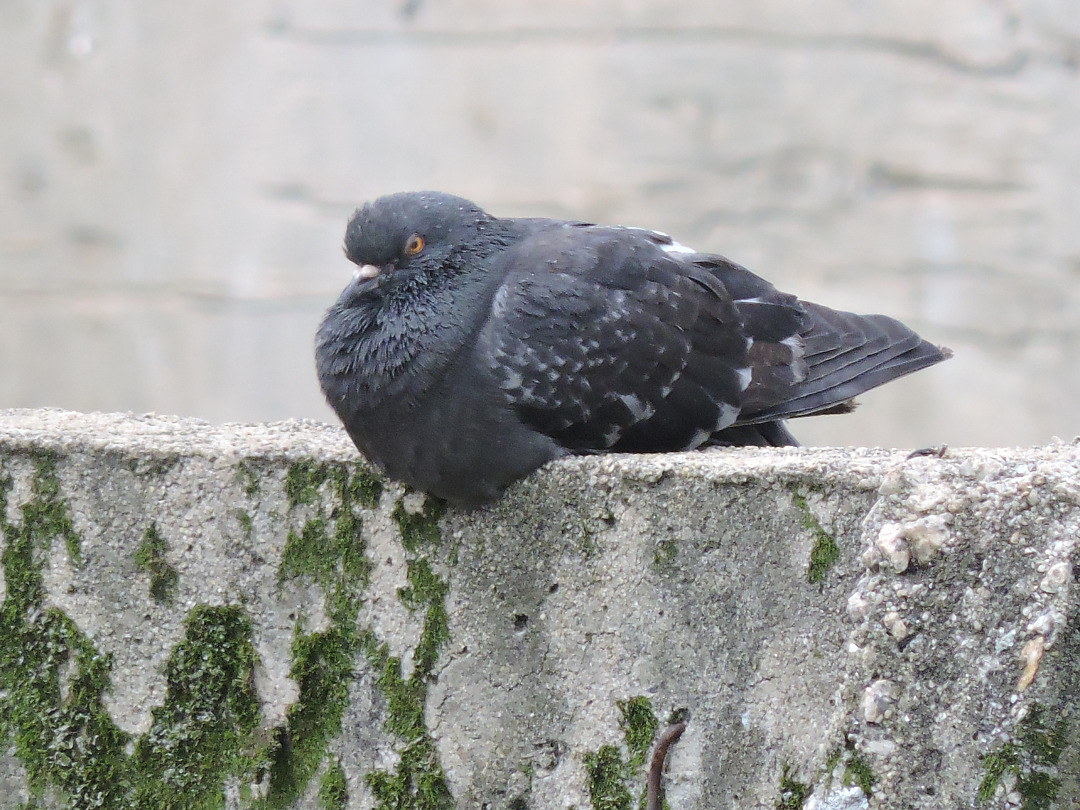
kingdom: Animalia
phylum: Chordata
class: Aves
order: Columbiformes
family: Columbidae
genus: Columba
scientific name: Columba livia
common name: Rock pigeon
